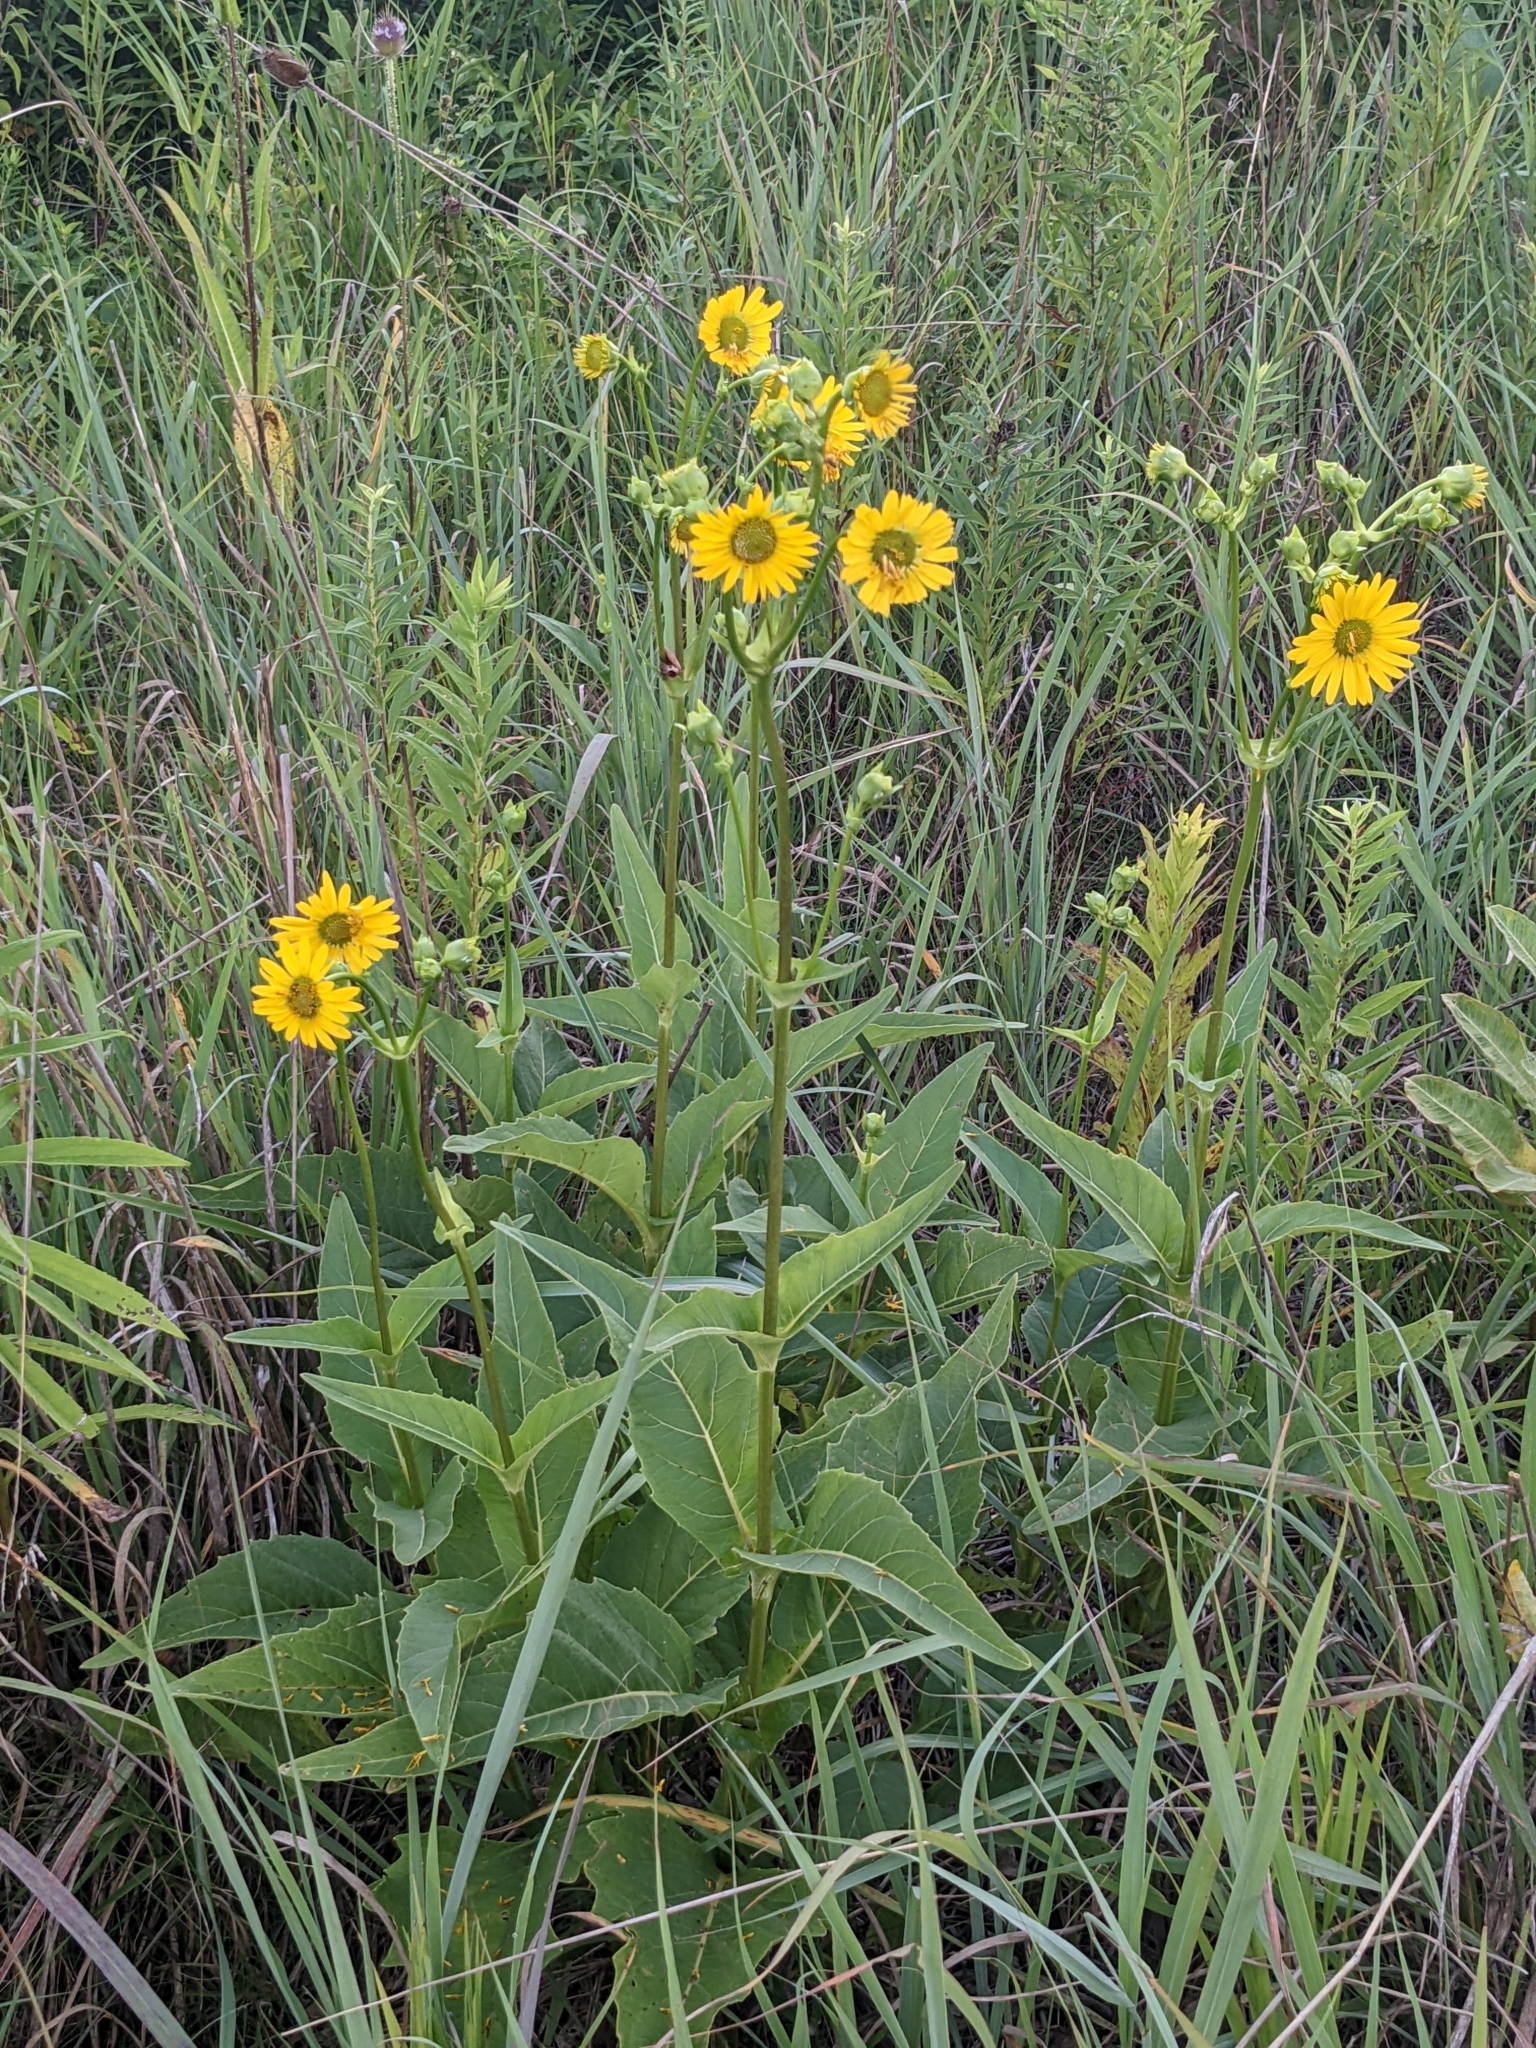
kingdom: Plantae
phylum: Tracheophyta
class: Magnoliopsida
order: Asterales
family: Asteraceae
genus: Silphium
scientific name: Silphium perfoliatum
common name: Cup-plant
